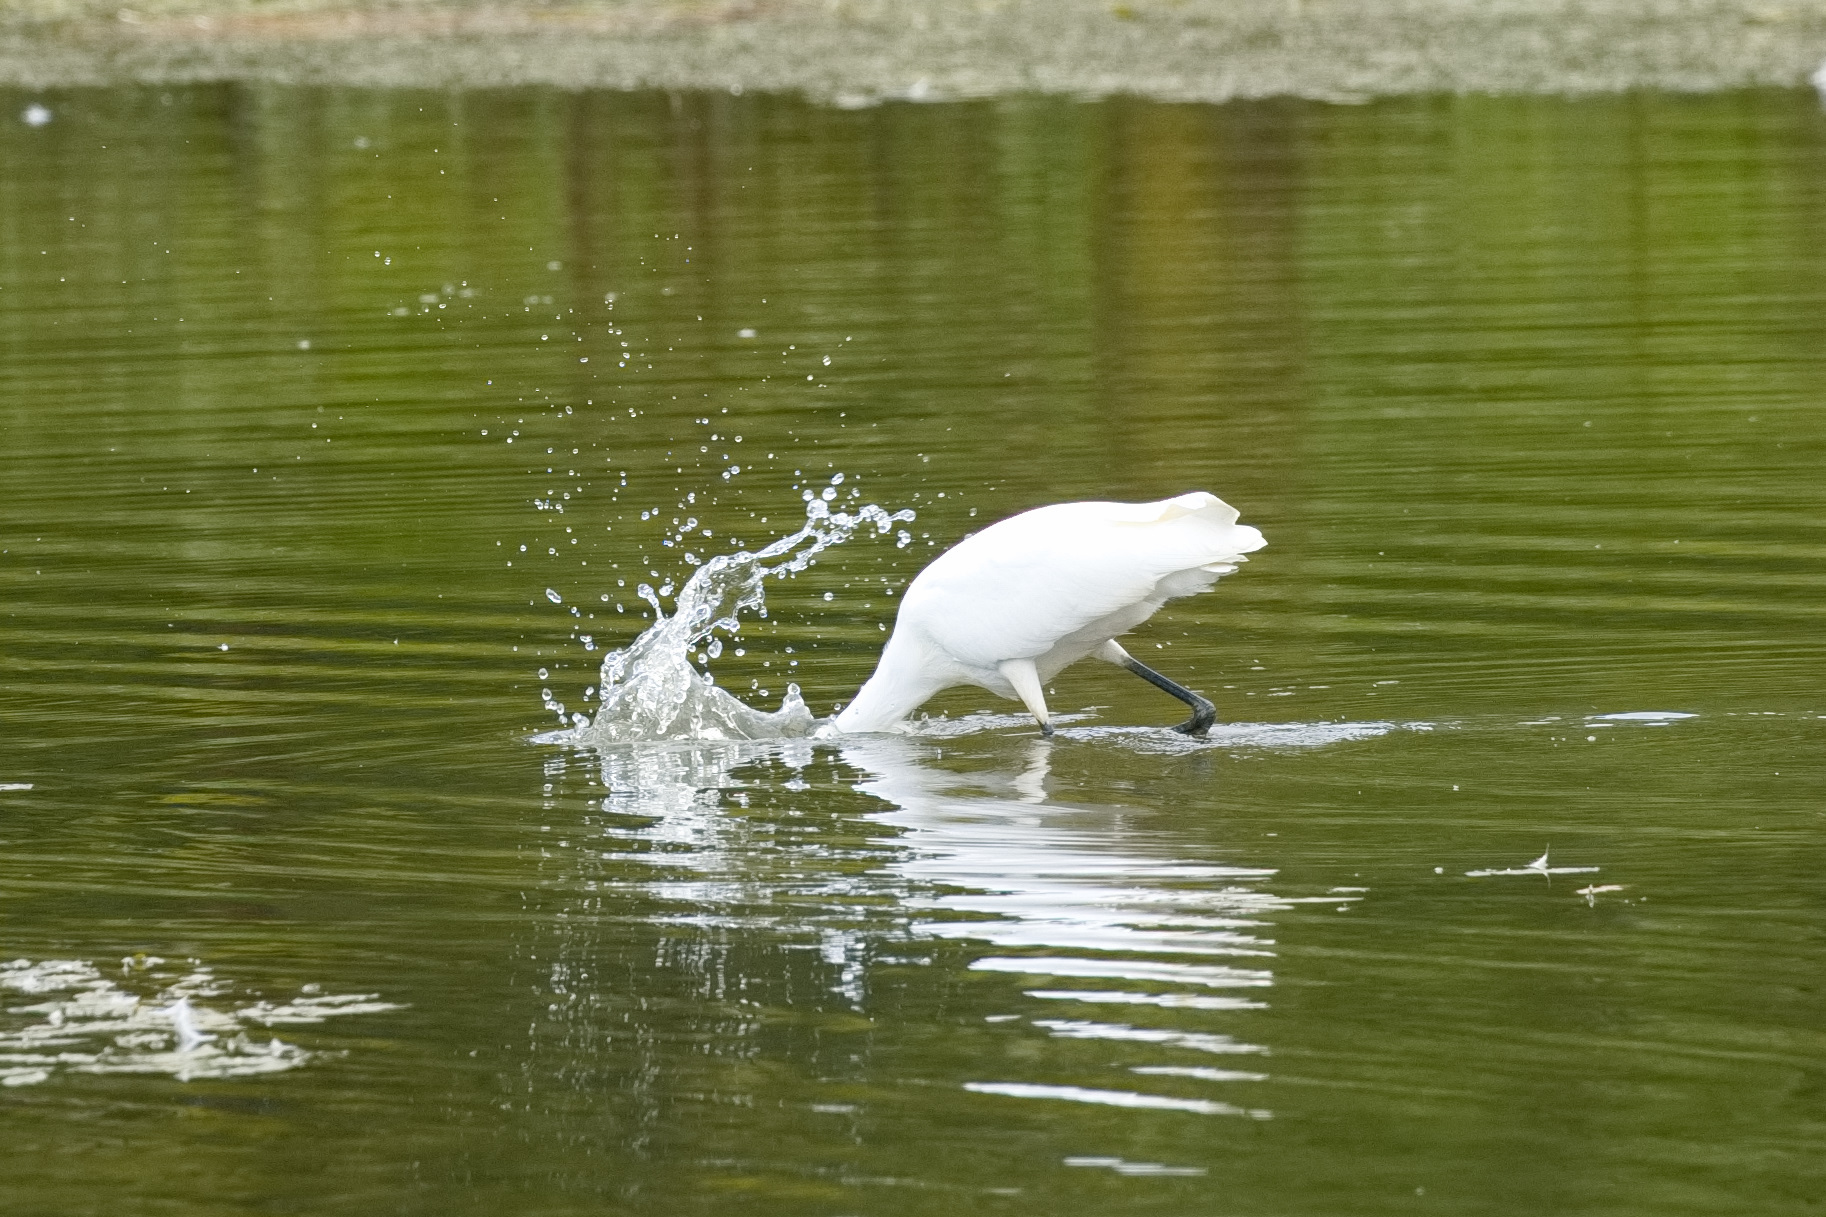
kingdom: Animalia
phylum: Chordata
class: Aves
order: Pelecaniformes
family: Ardeidae
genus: Ardea
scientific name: Ardea alba
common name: Great egret
